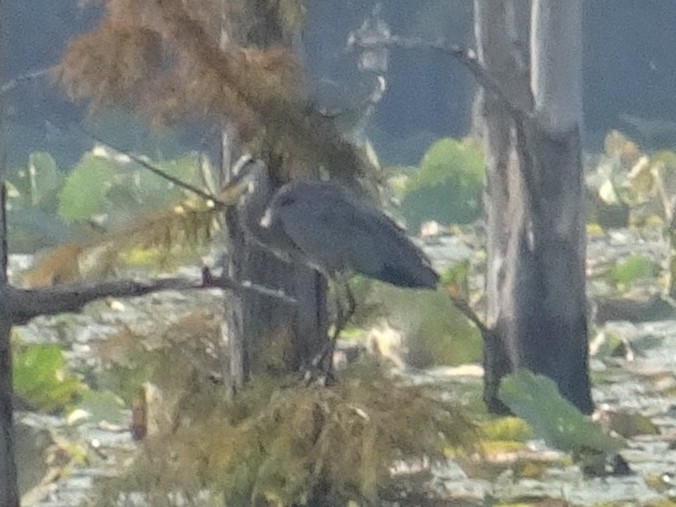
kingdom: Animalia
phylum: Chordata
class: Aves
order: Pelecaniformes
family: Ardeidae
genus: Ardea
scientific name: Ardea herodias
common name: Great blue heron
